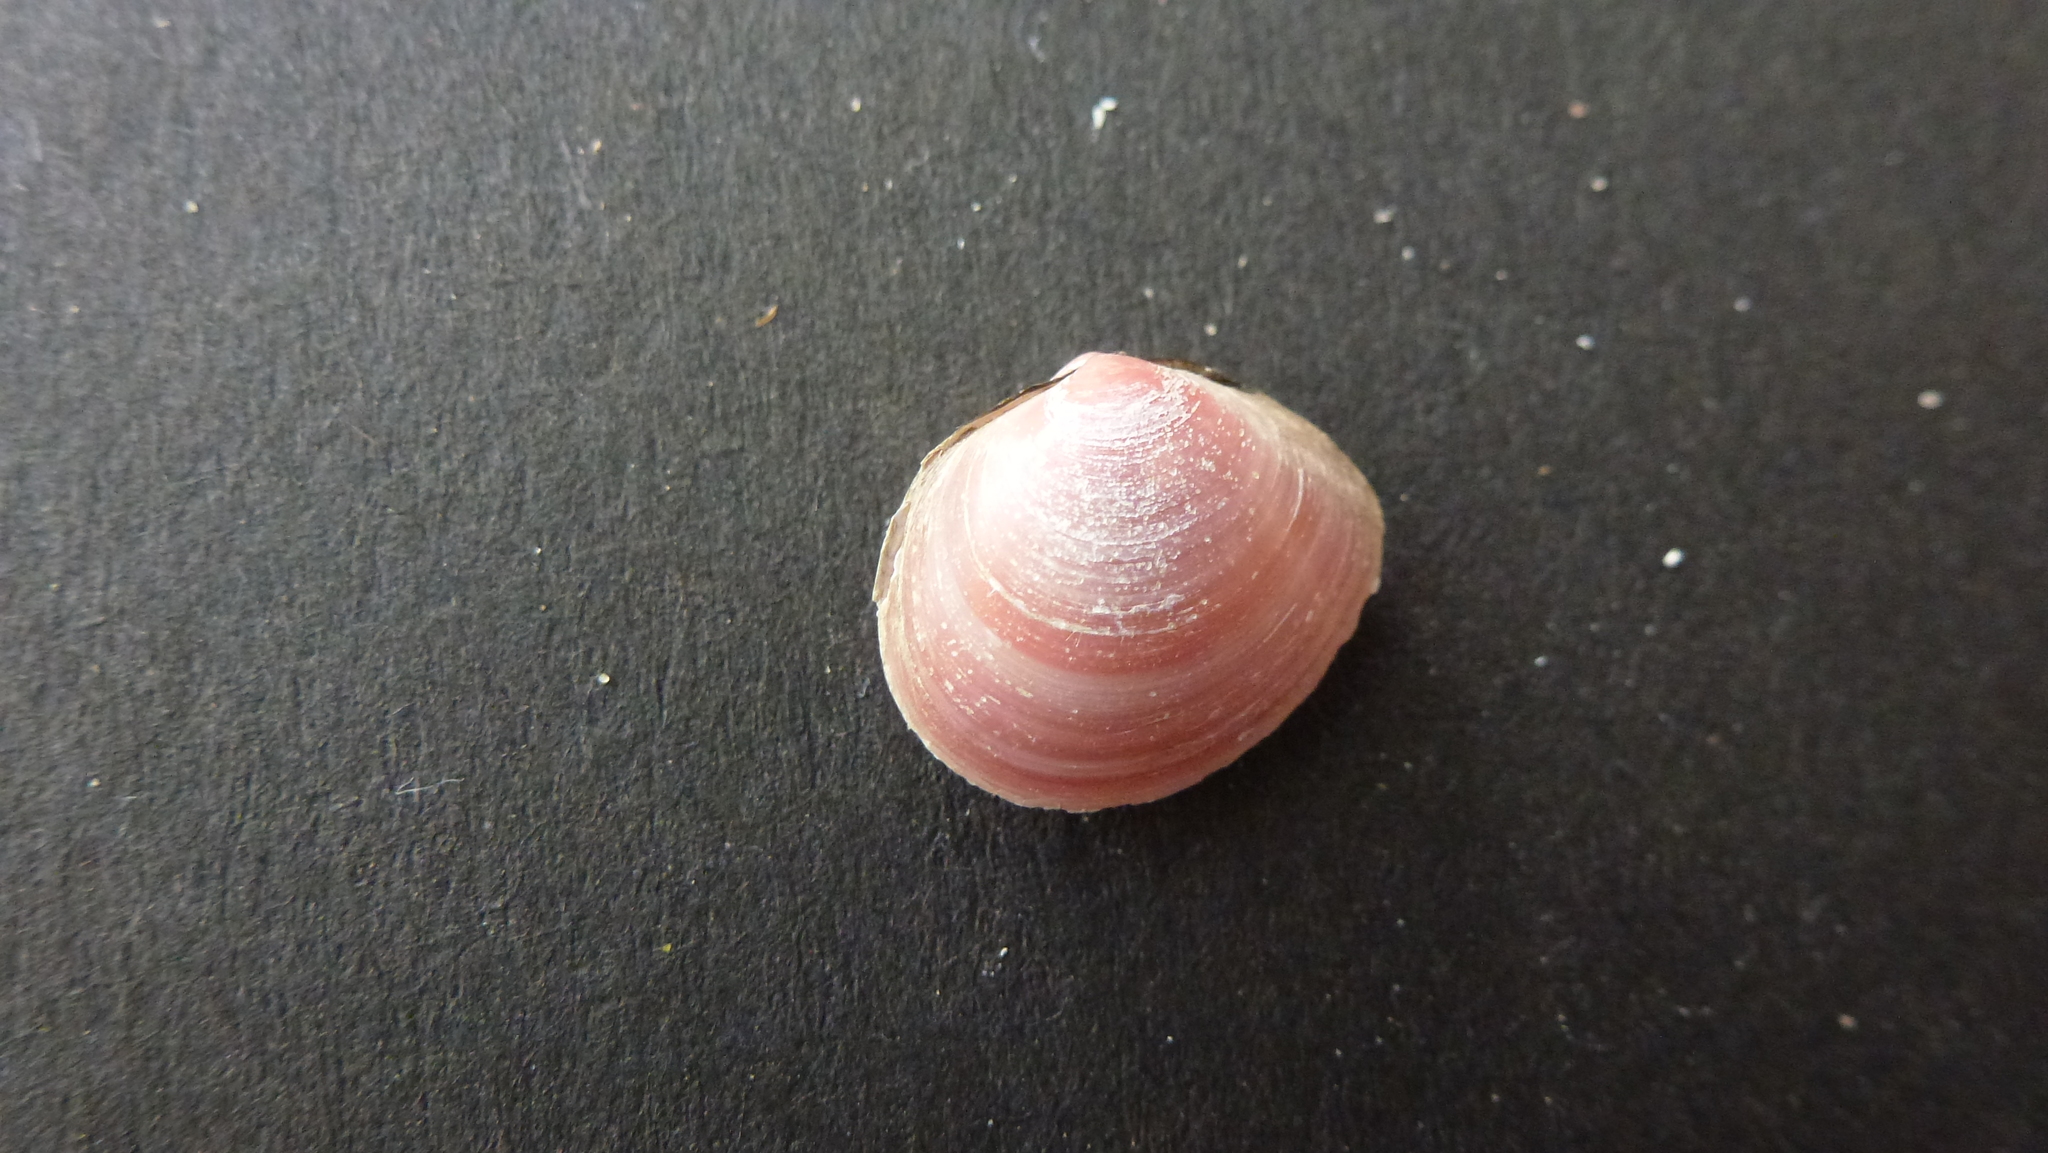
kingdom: Animalia
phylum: Mollusca
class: Bivalvia
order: Cardiida
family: Tellinidae
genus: Macoma
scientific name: Macoma balthica
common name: Baltic tellin
